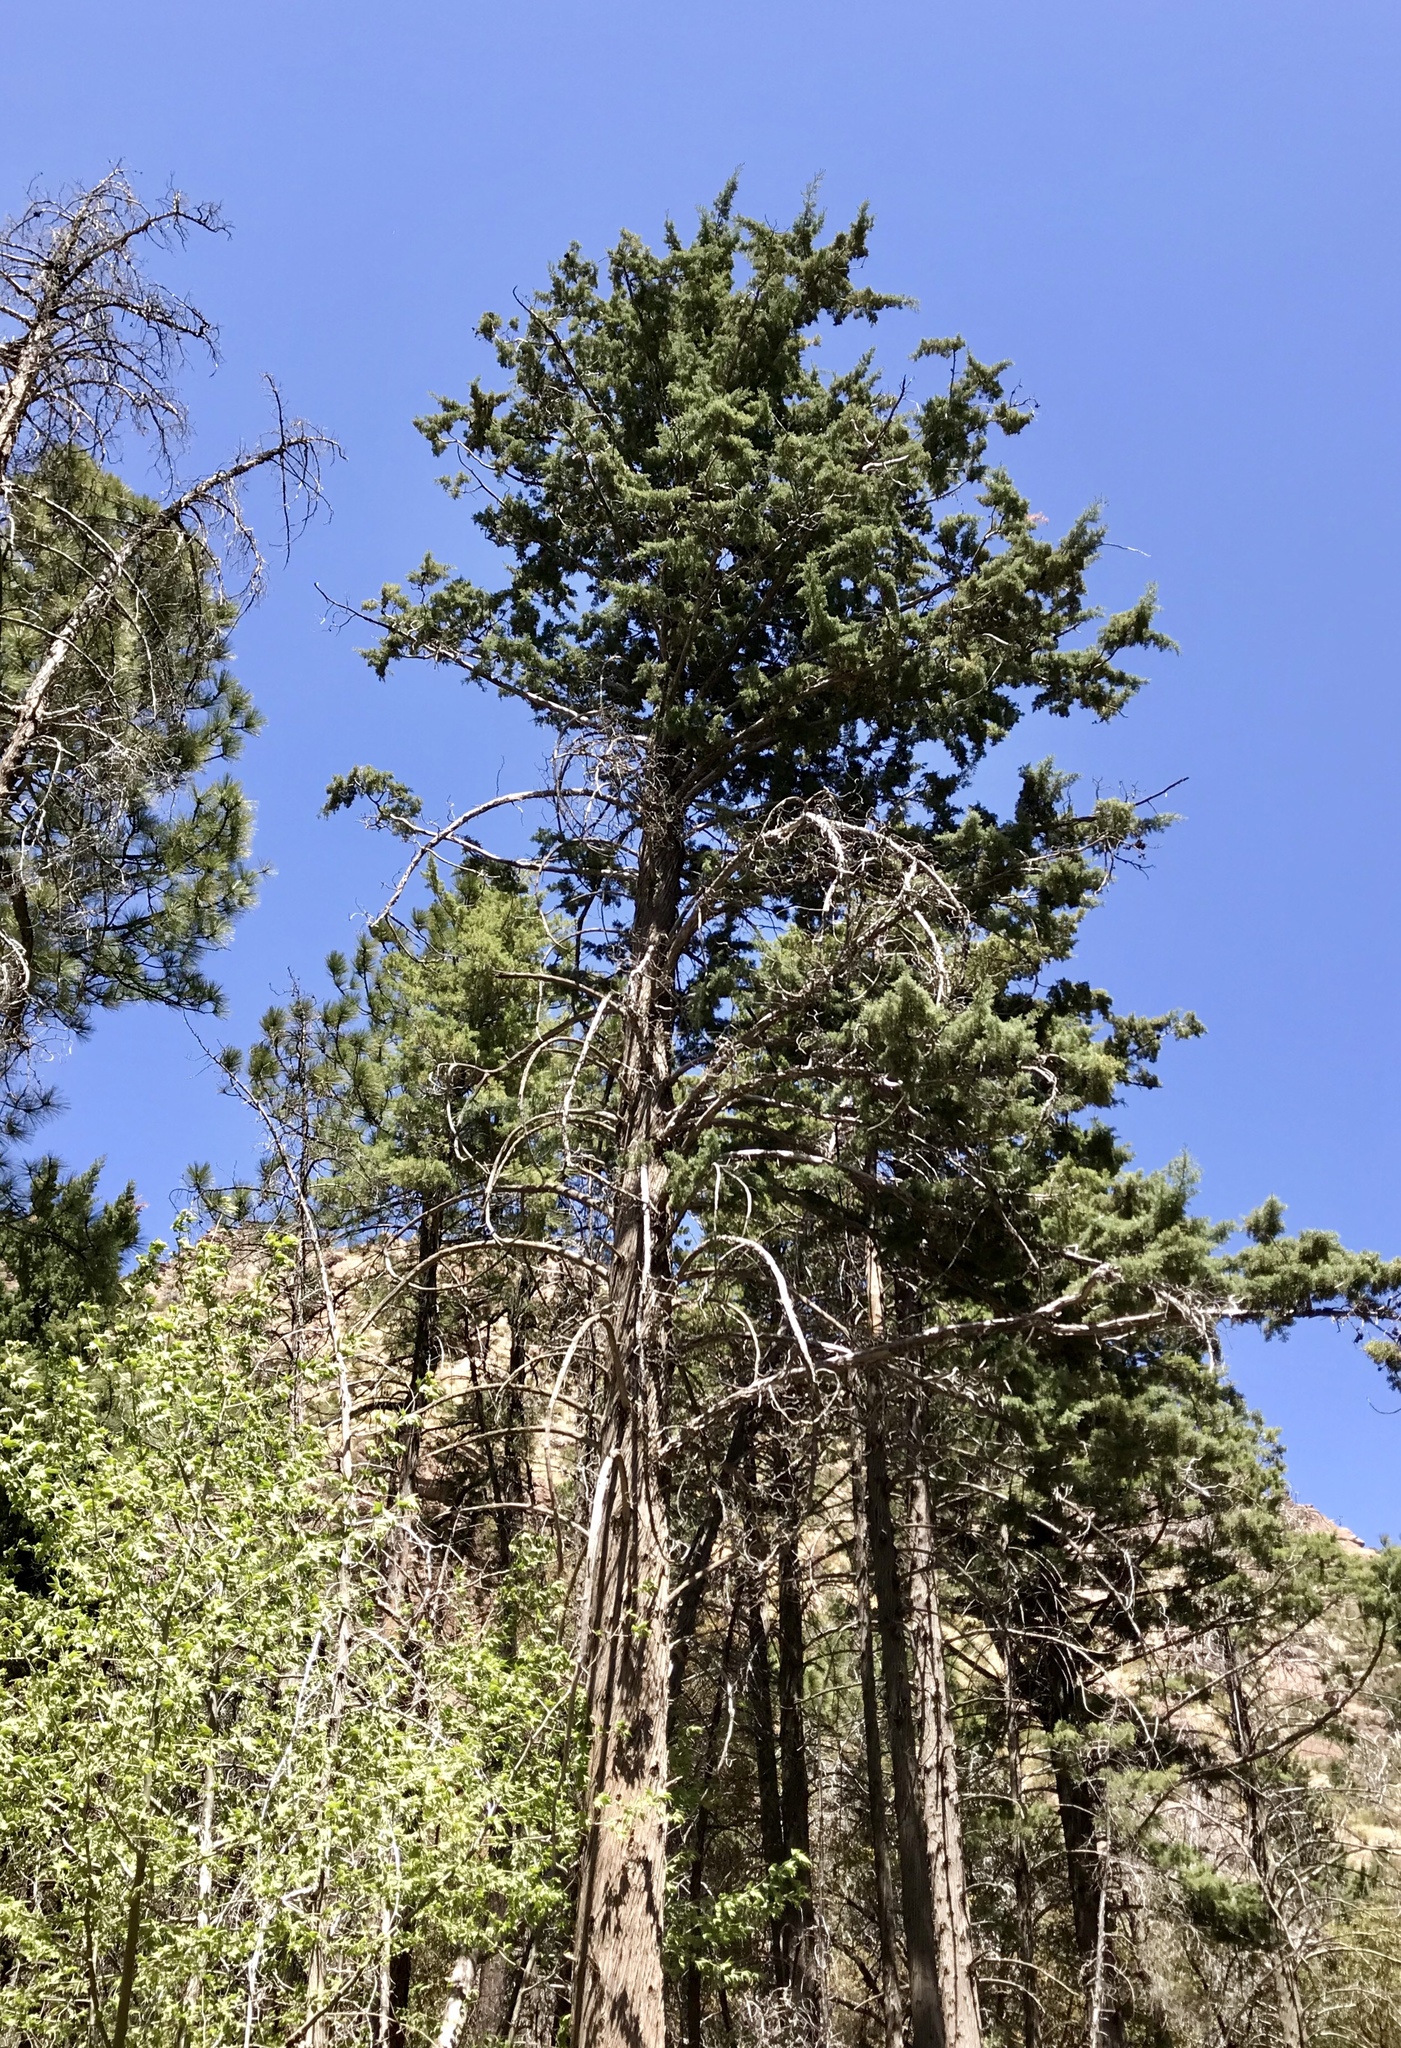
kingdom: Plantae
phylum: Tracheophyta
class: Pinopsida
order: Pinales
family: Cupressaceae
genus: Cupressus
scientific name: Cupressus arizonica
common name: Arizona cypress
